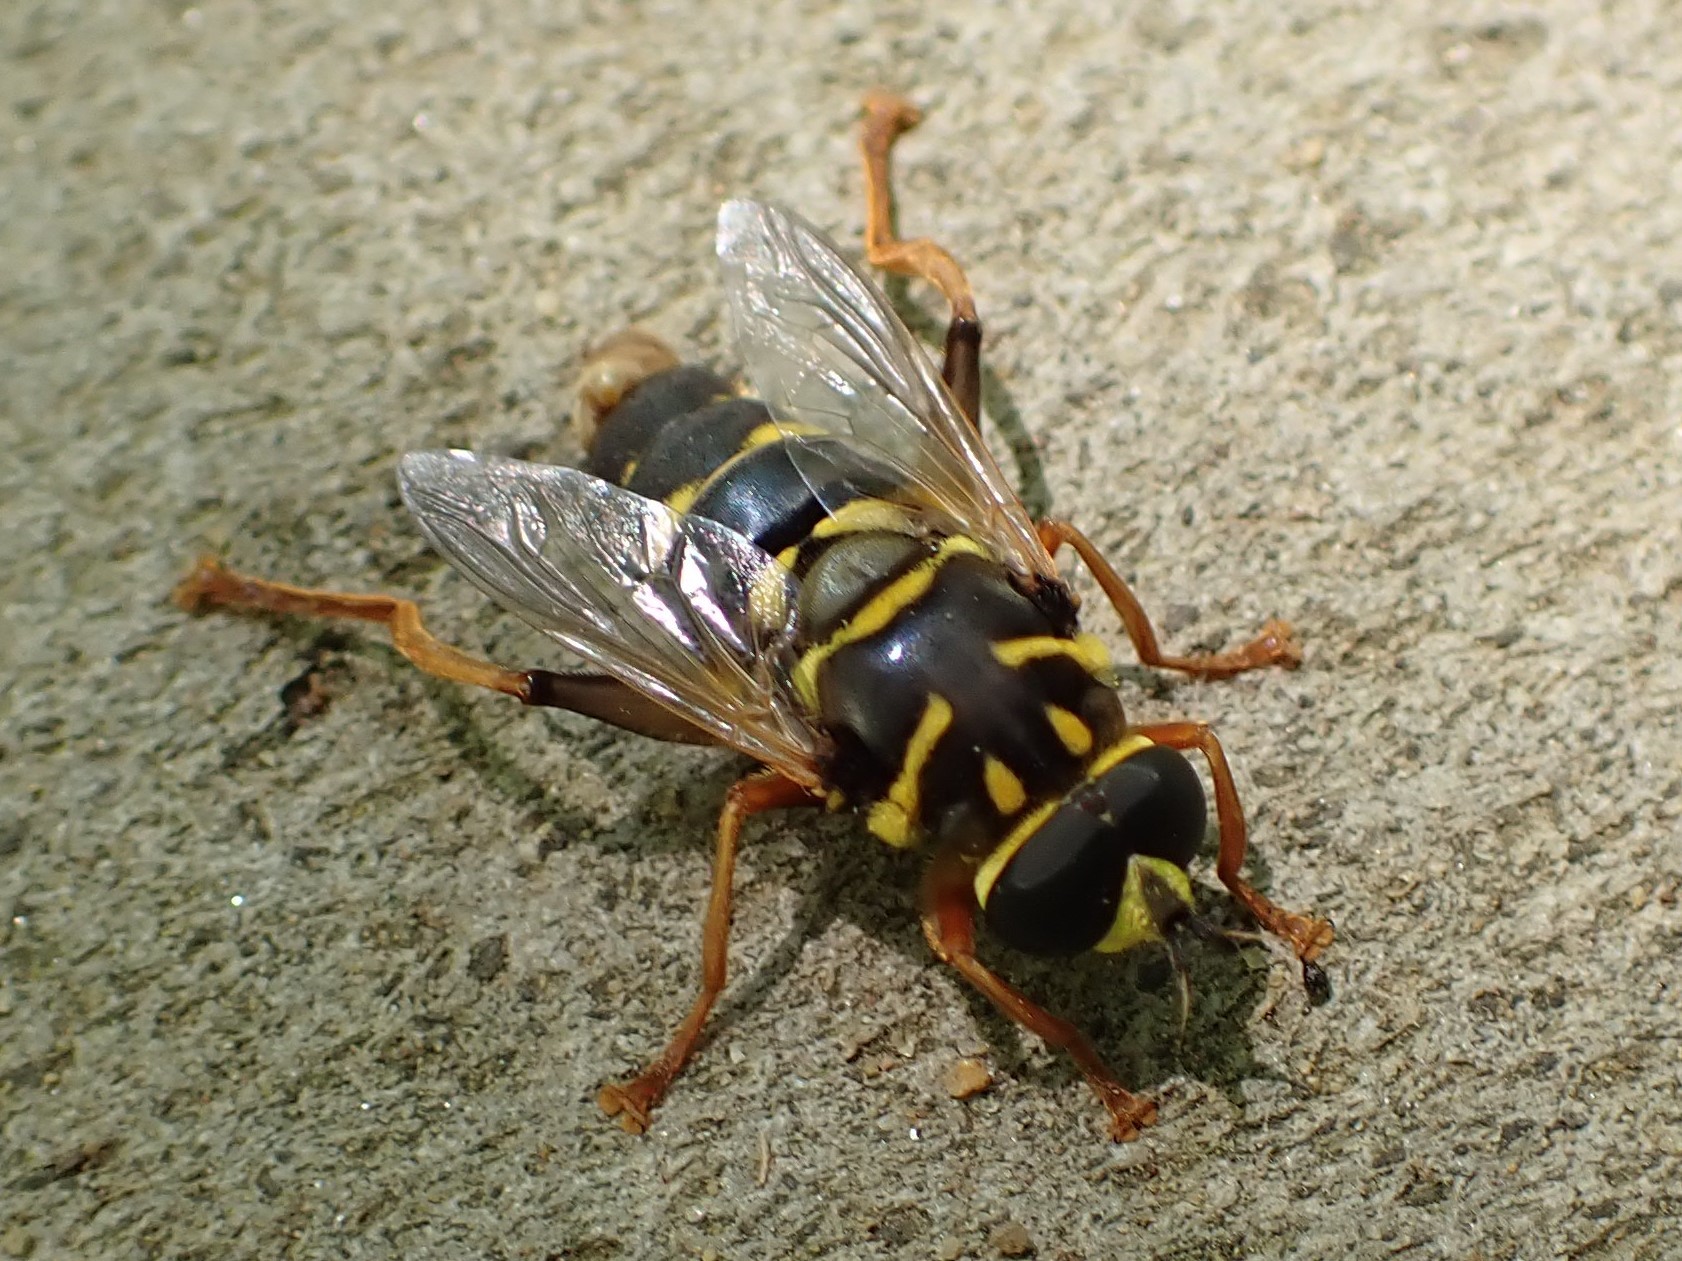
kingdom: Animalia
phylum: Arthropoda
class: Insecta
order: Diptera
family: Syrphidae
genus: Meromacrus
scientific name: Meromacrus acutus
